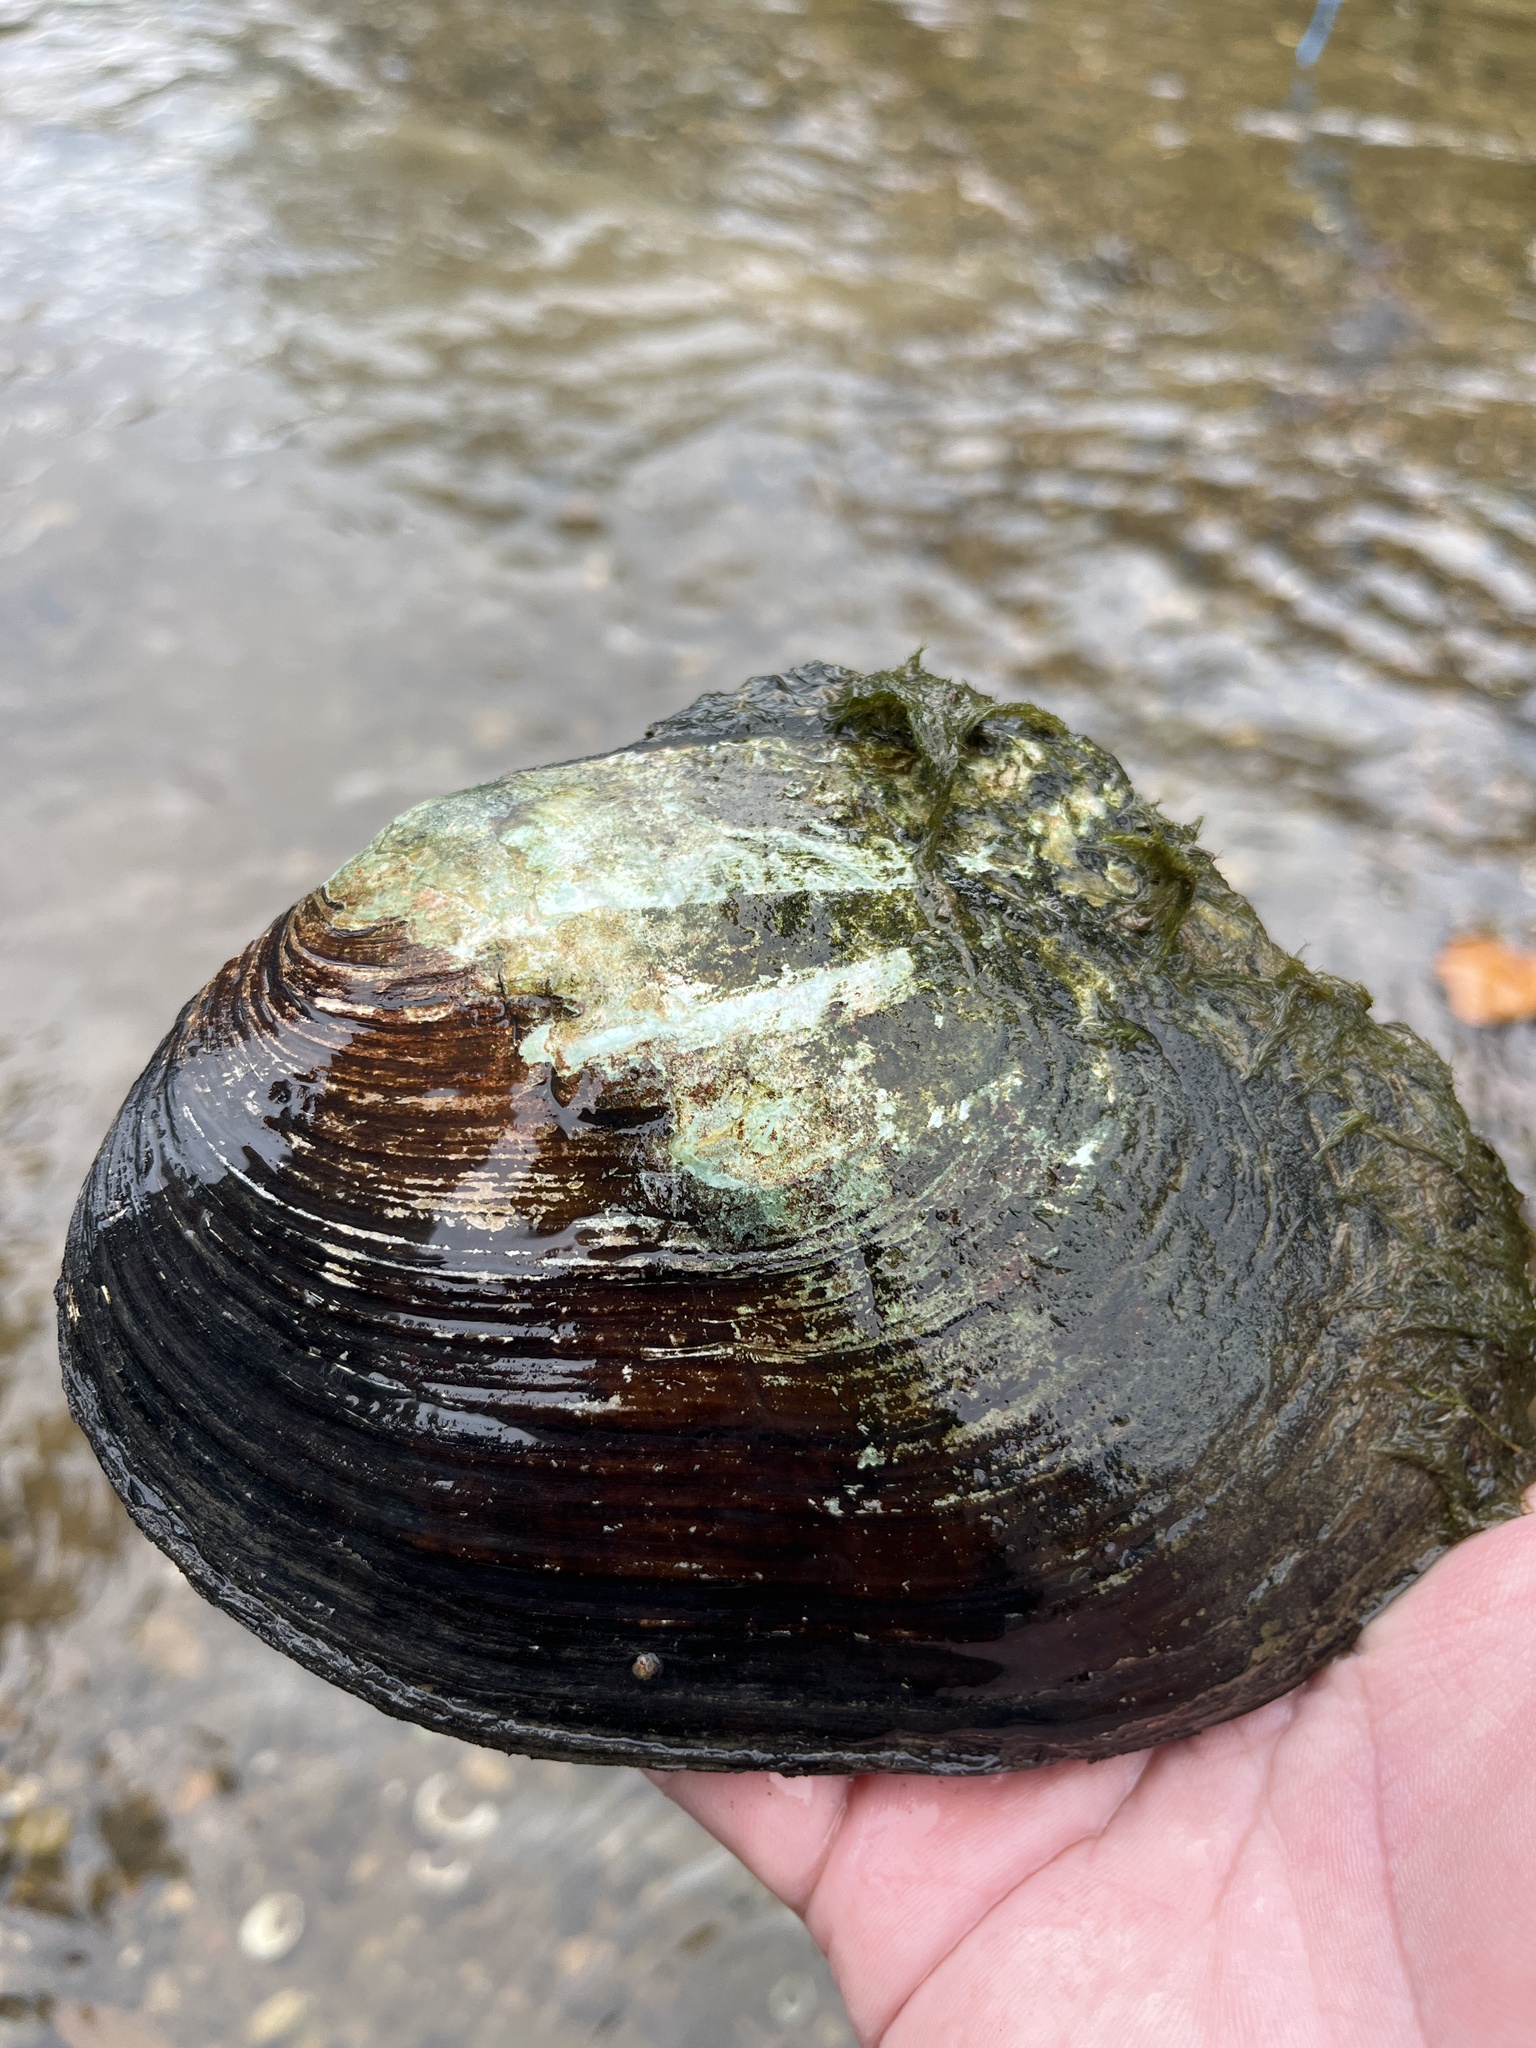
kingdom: Animalia
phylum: Mollusca
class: Bivalvia
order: Unionida
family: Unionidae
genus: Lasmigona
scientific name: Lasmigona complanata
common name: White heelsplitter
